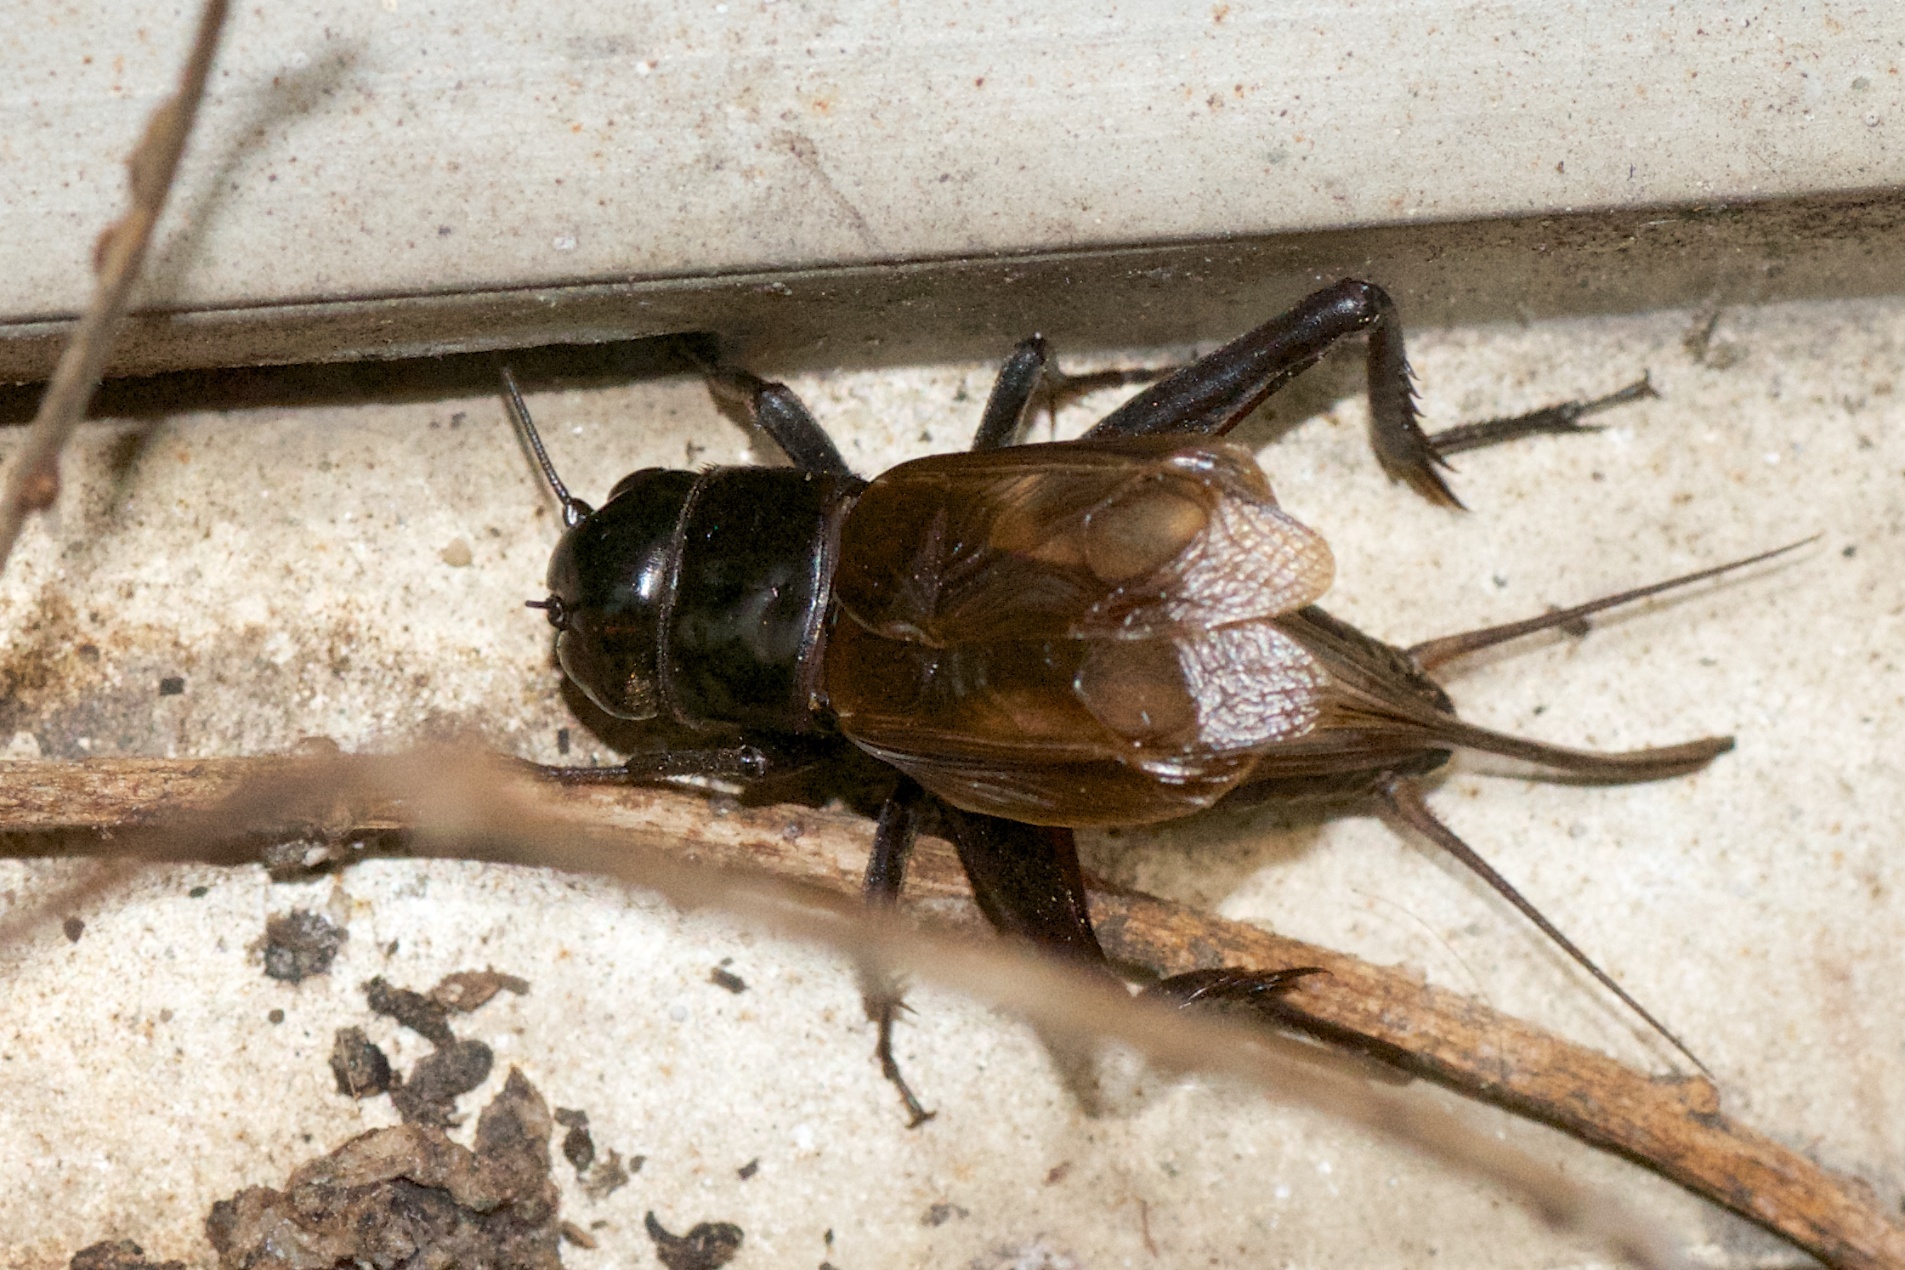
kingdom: Animalia
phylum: Arthropoda
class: Insecta
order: Orthoptera
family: Gryllidae
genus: Teleogryllus
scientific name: Teleogryllus commodus
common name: Black field cricket
